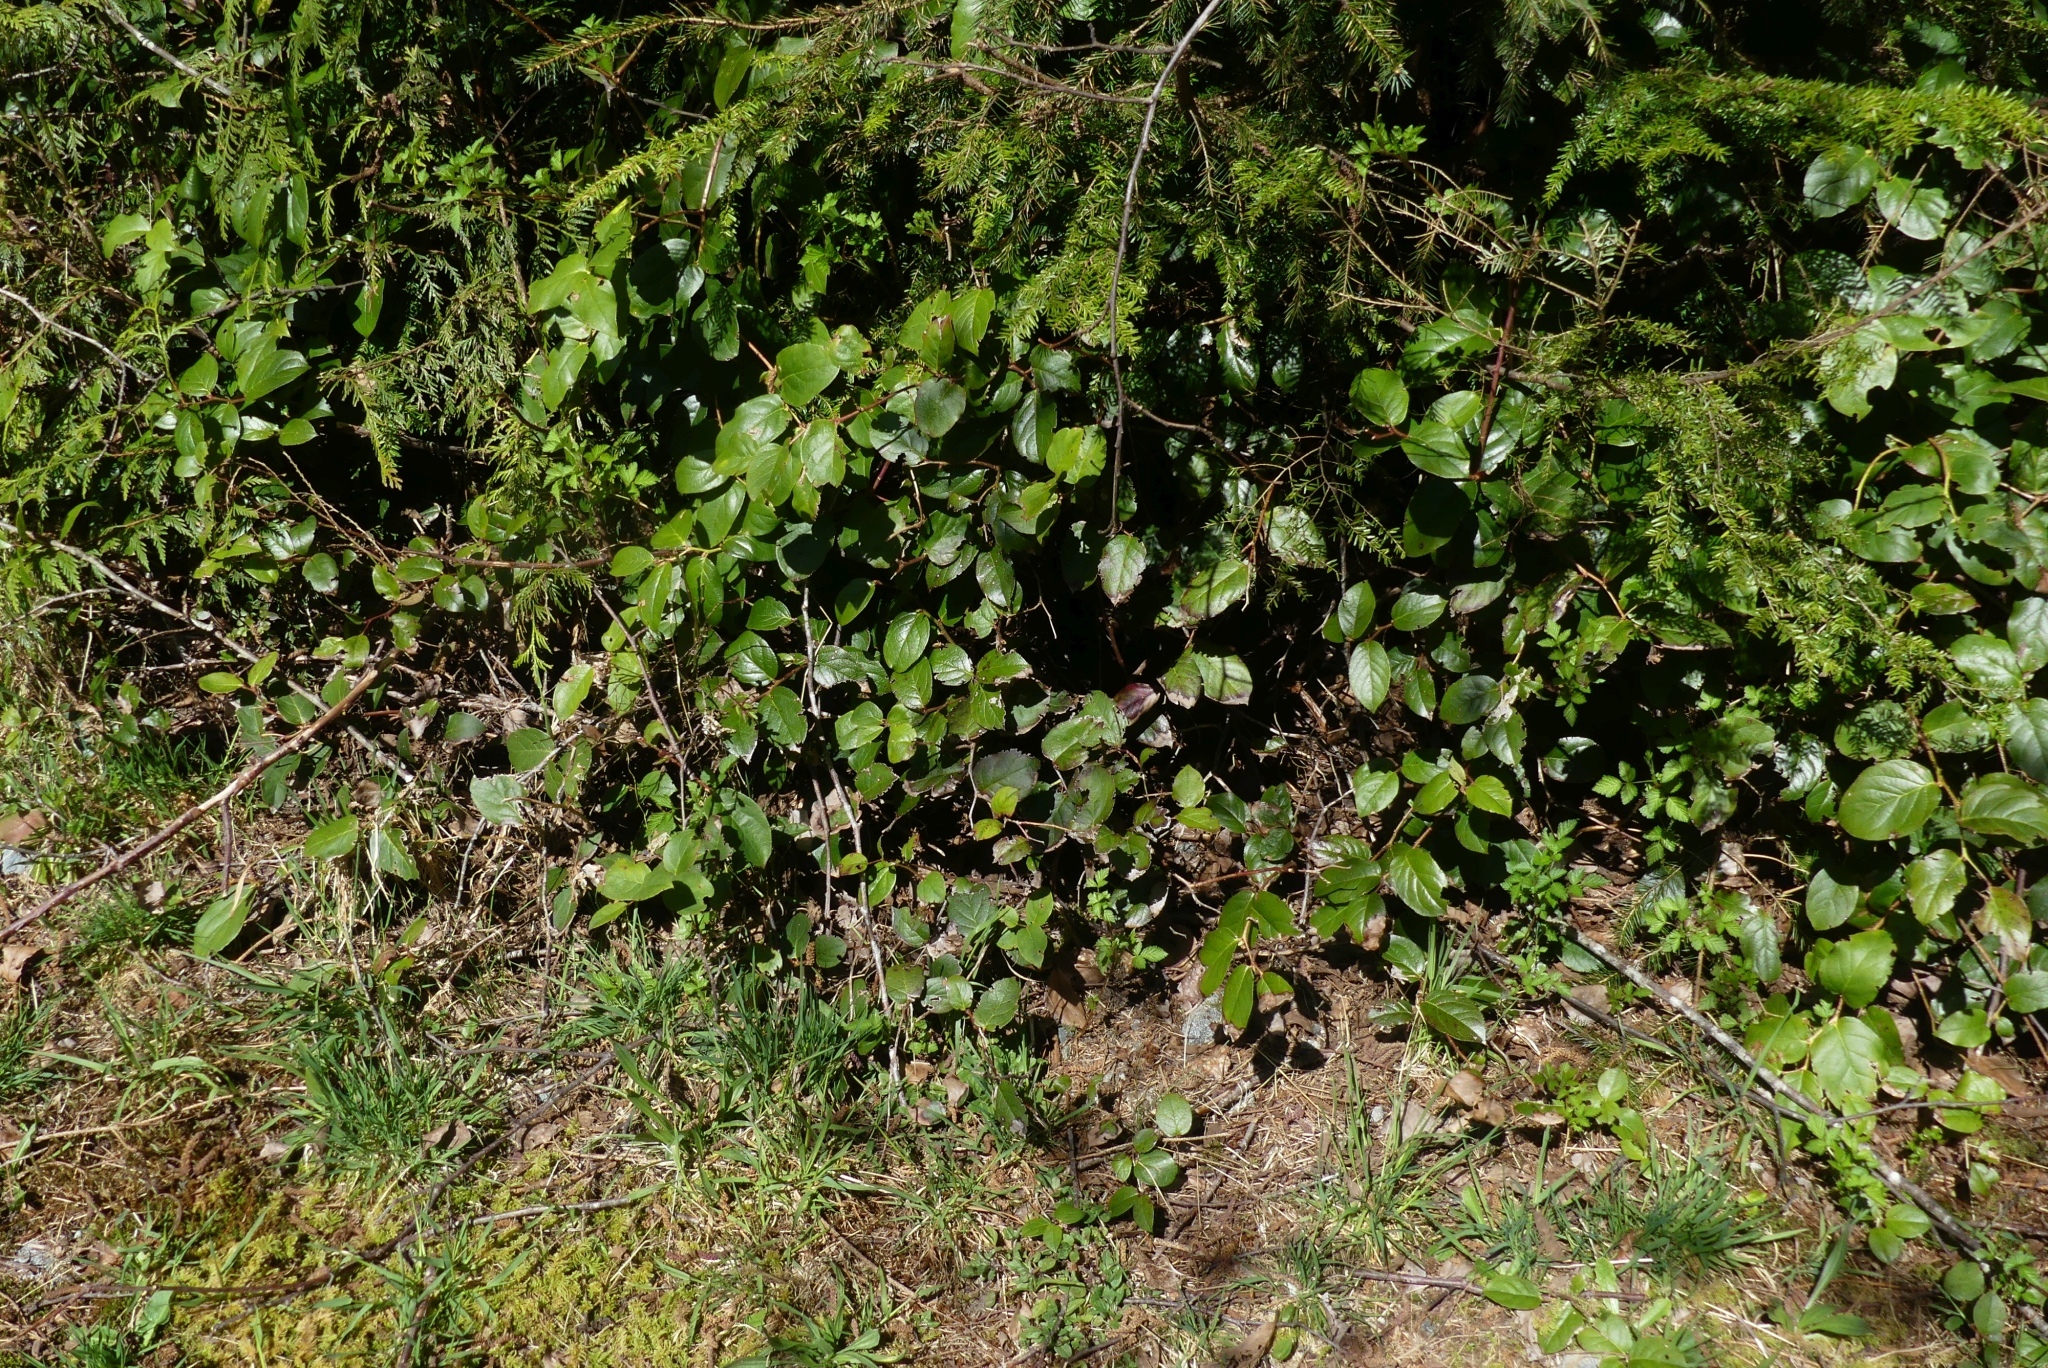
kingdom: Plantae
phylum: Tracheophyta
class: Magnoliopsida
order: Ericales
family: Ericaceae
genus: Gaultheria
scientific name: Gaultheria shallon
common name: Shallon
